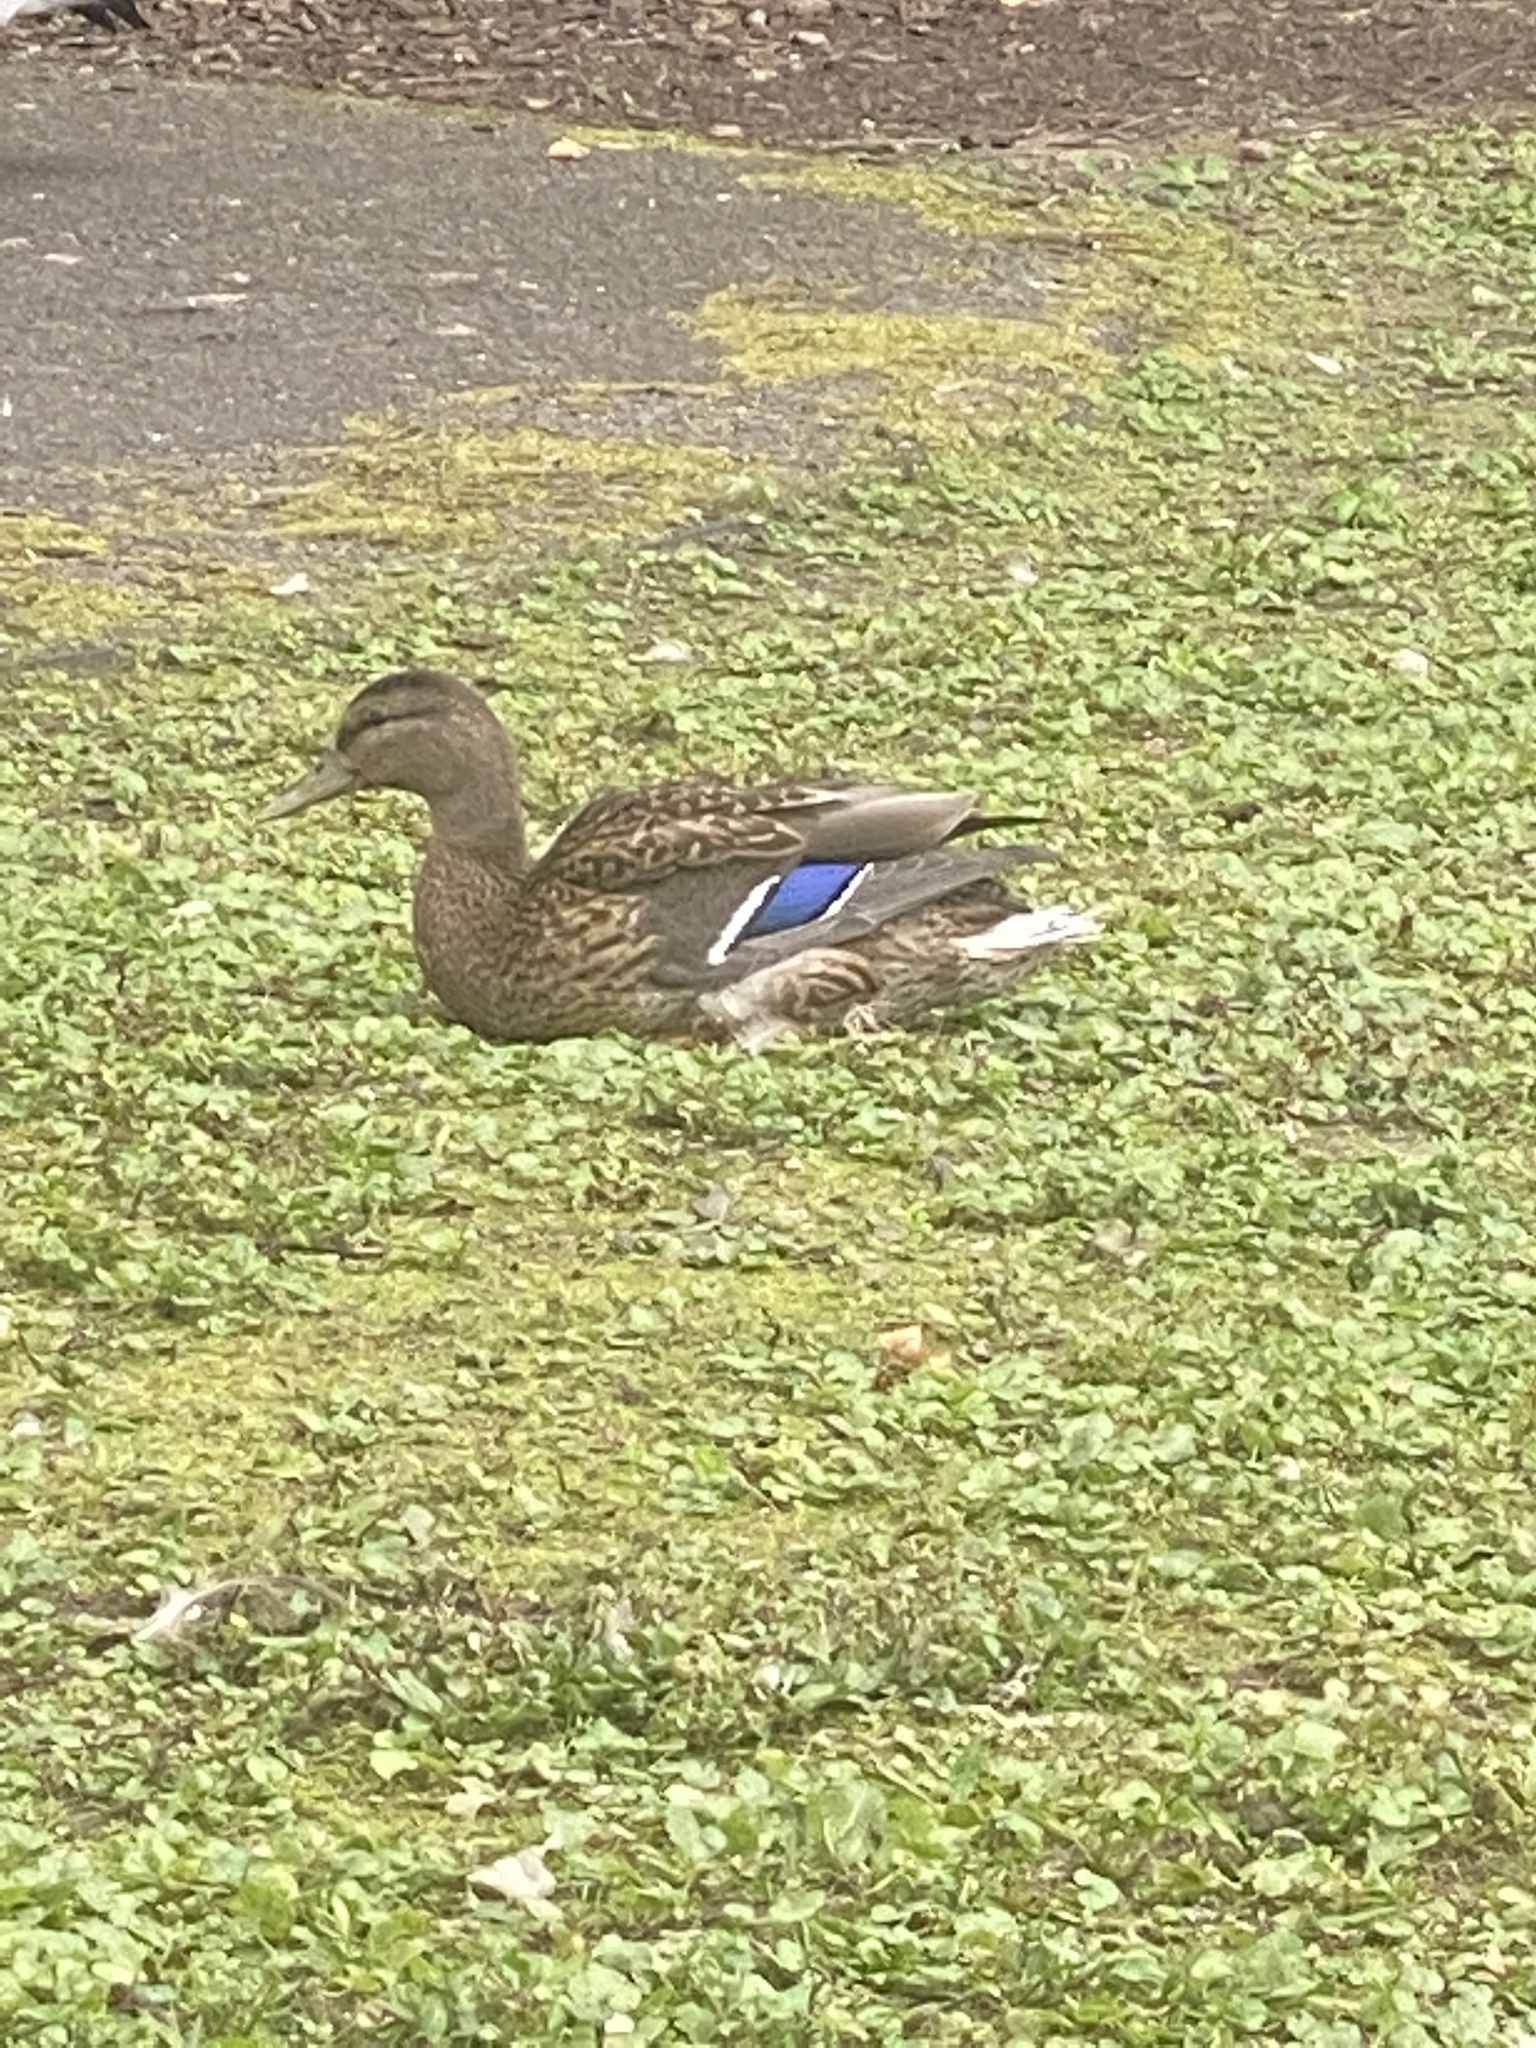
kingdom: Animalia
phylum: Chordata
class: Aves
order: Anseriformes
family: Anatidae
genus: Anas
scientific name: Anas platyrhynchos
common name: Mallard
